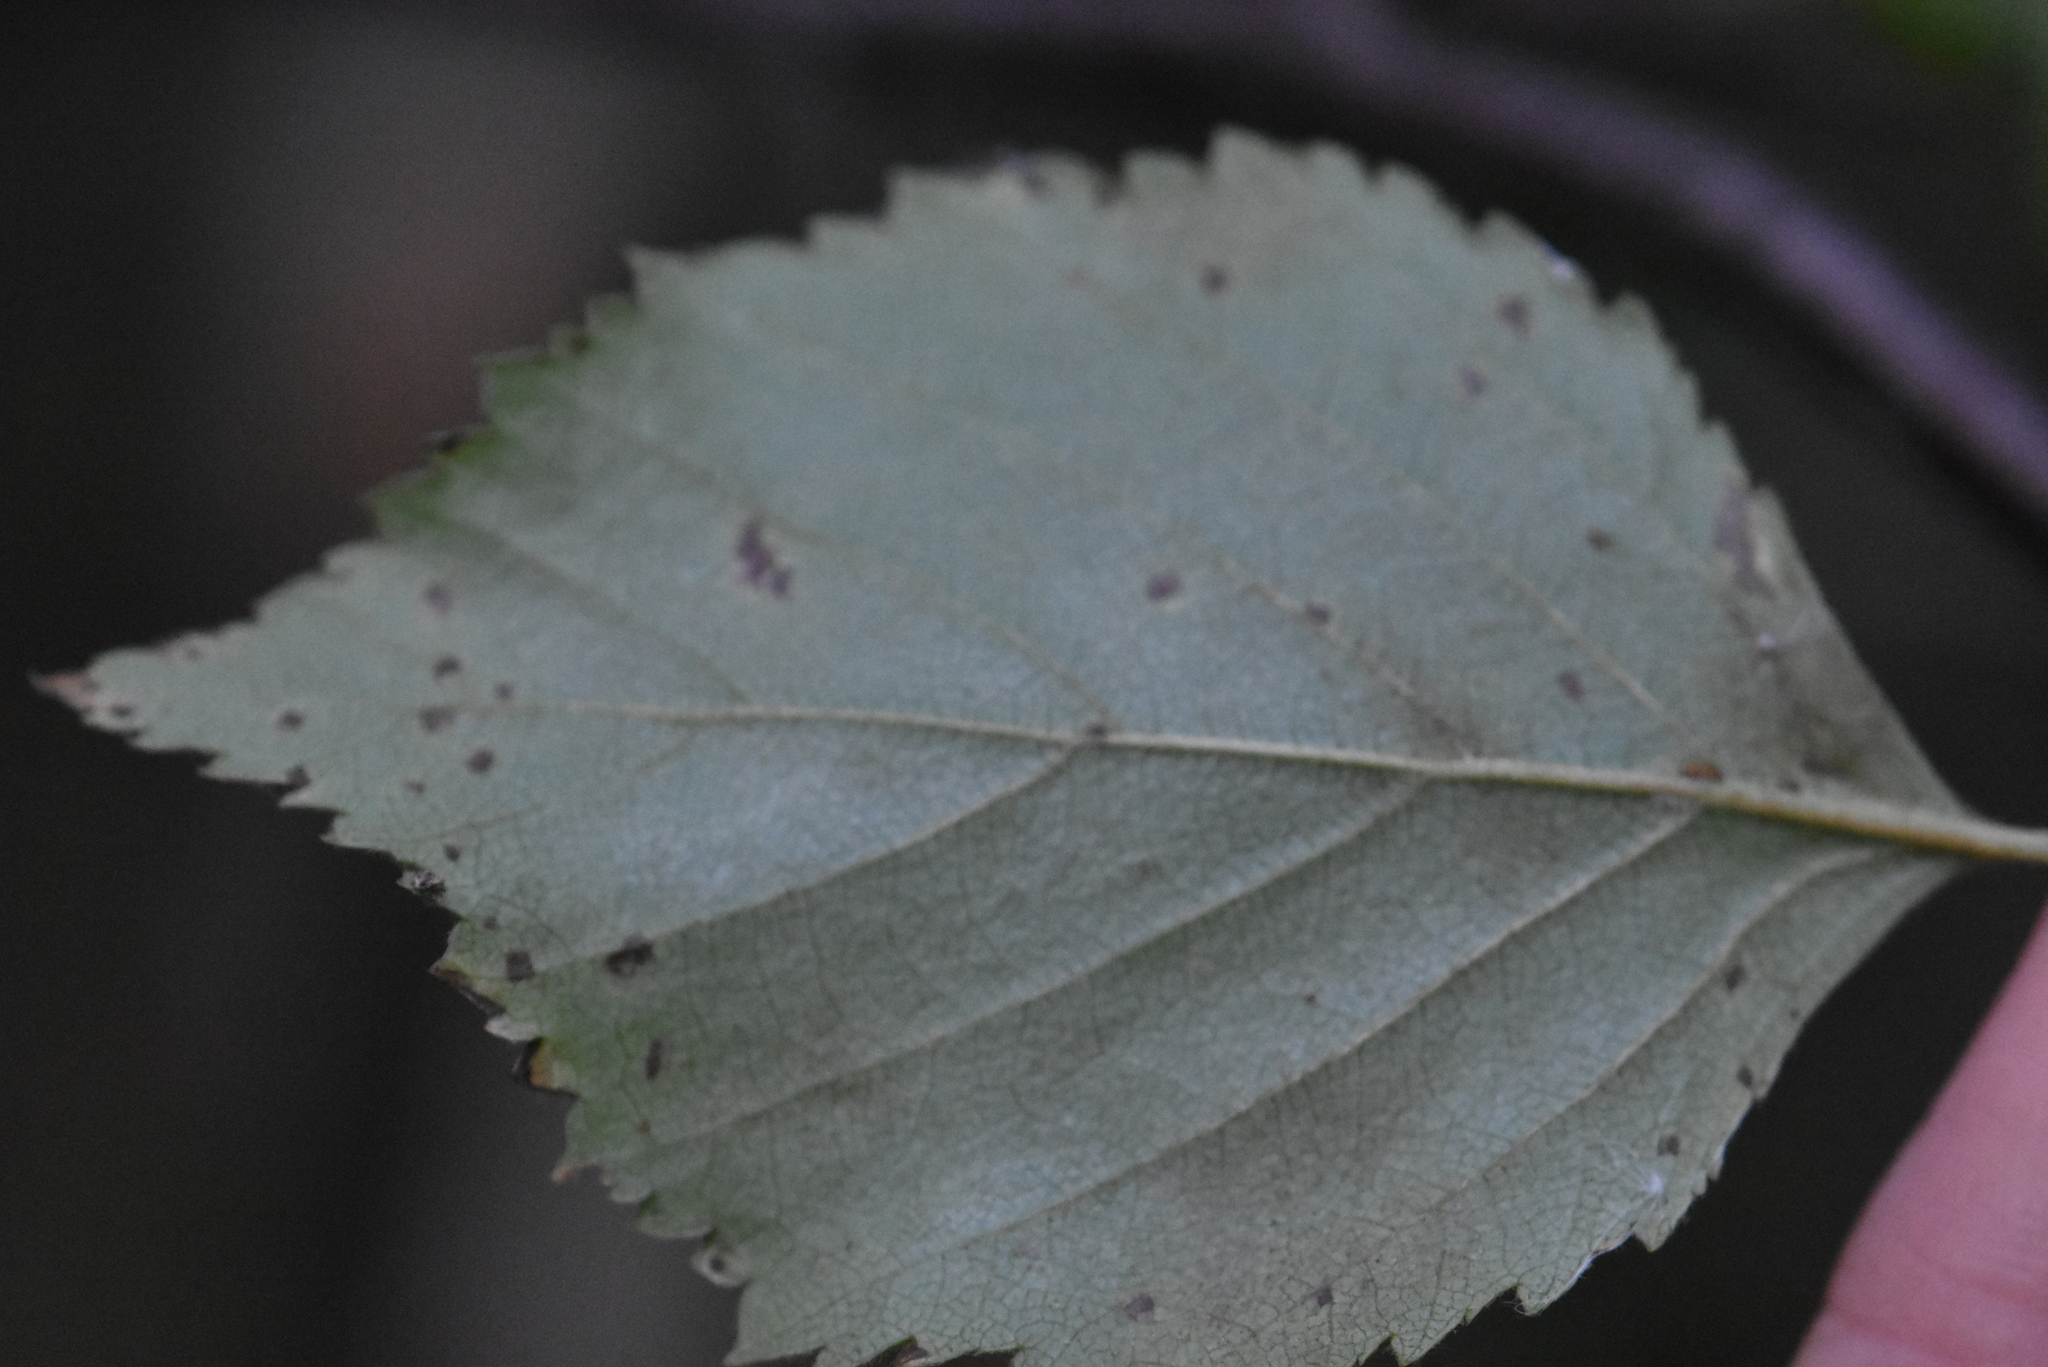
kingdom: Plantae
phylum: Tracheophyta
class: Magnoliopsida
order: Fagales
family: Betulaceae
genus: Betula
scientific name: Betula pubescens
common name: Downy birch
